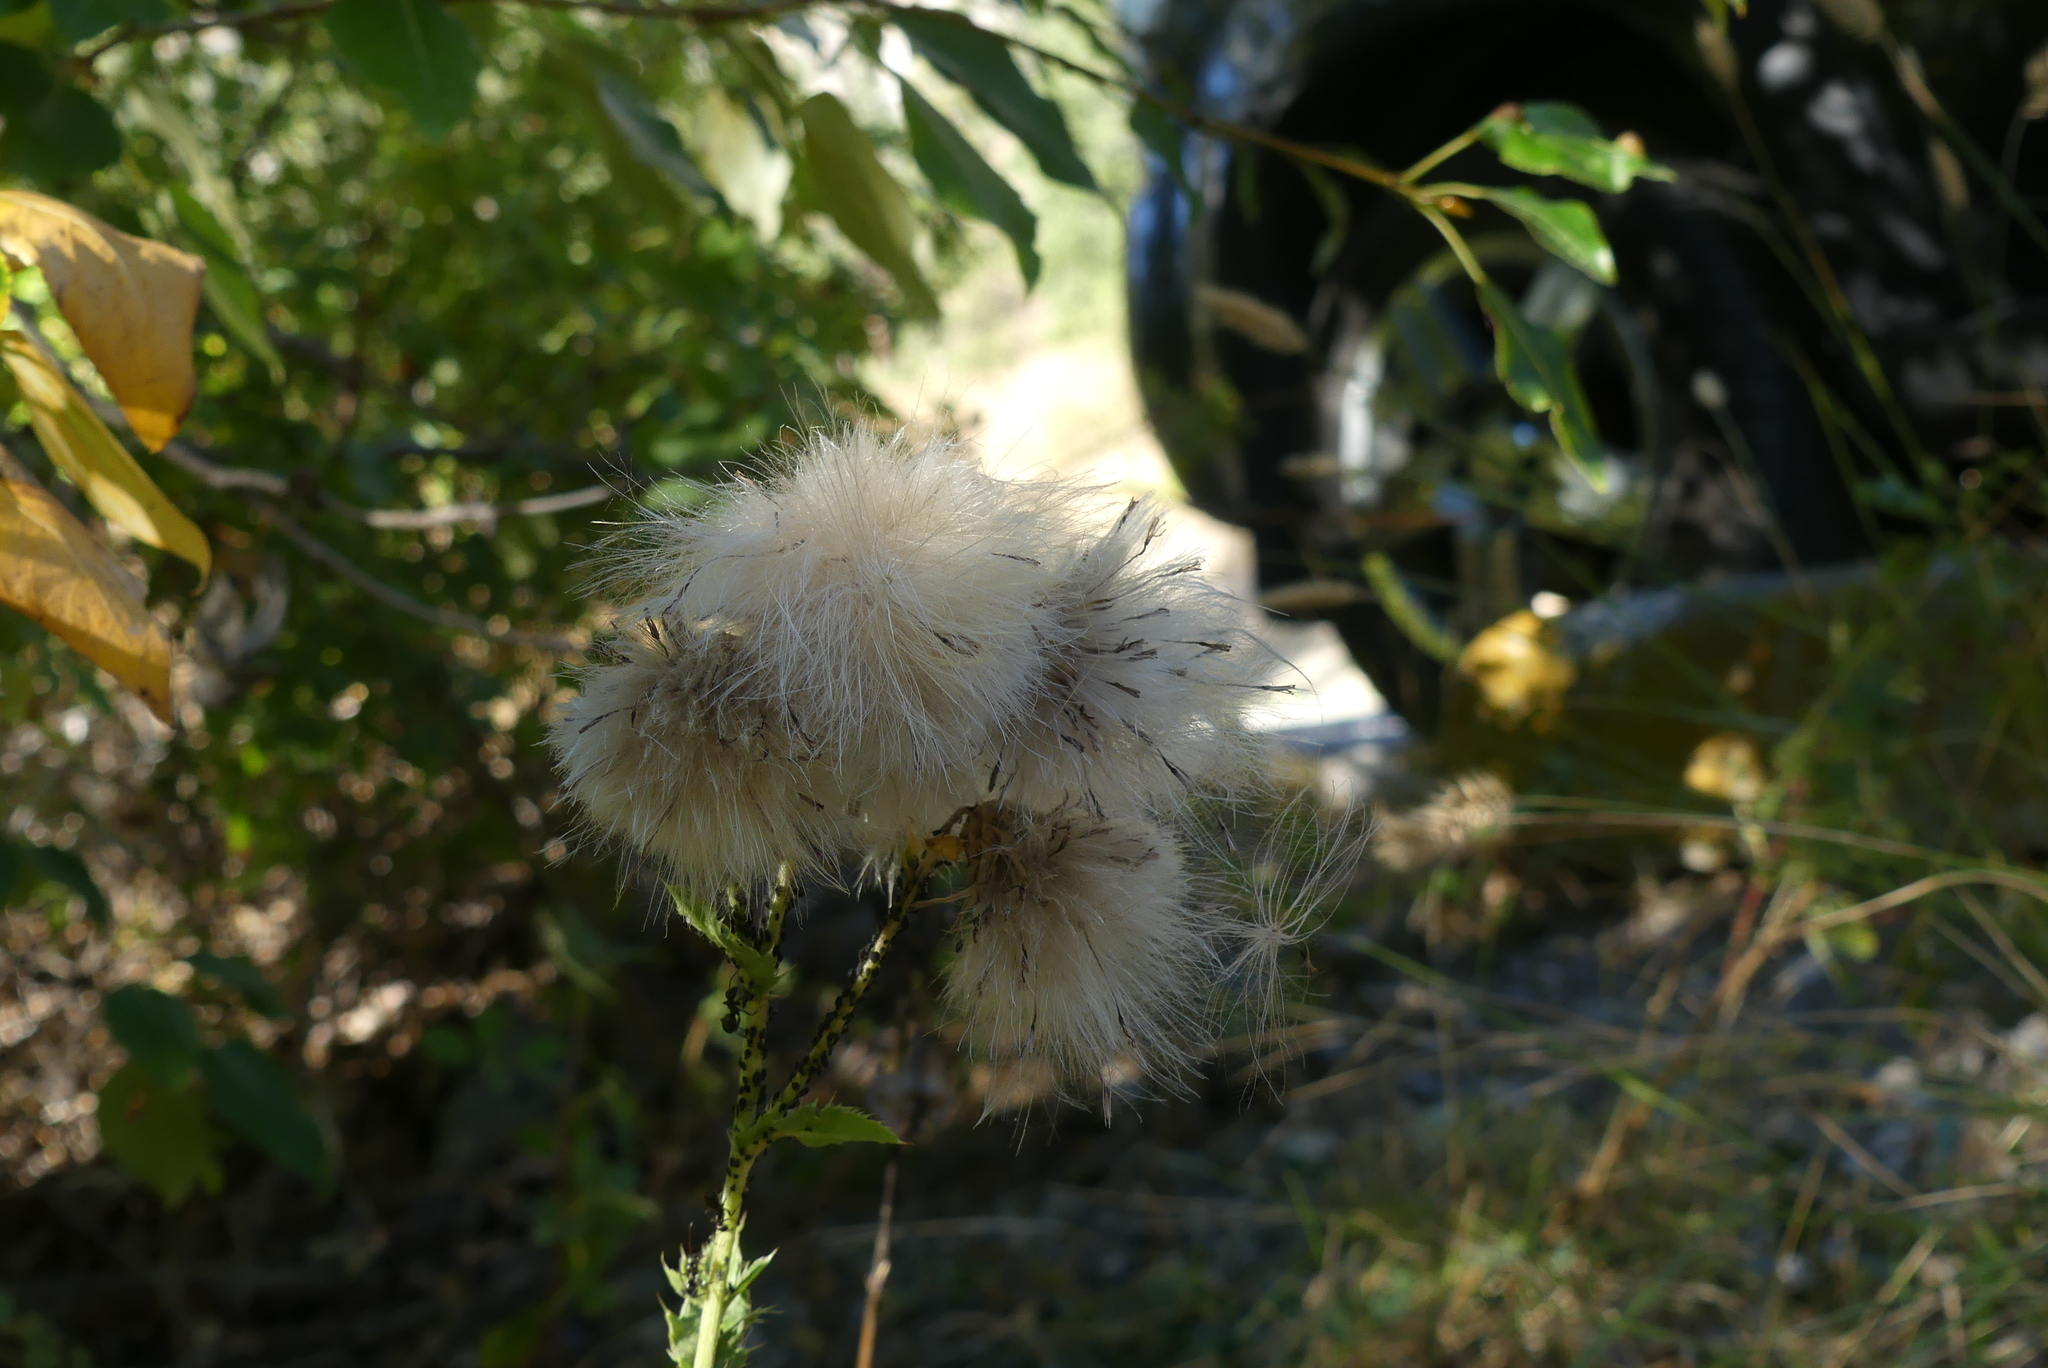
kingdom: Plantae
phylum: Tracheophyta
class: Magnoliopsida
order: Asterales
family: Asteraceae
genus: Cirsium
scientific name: Cirsium arvense
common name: Creeping thistle
